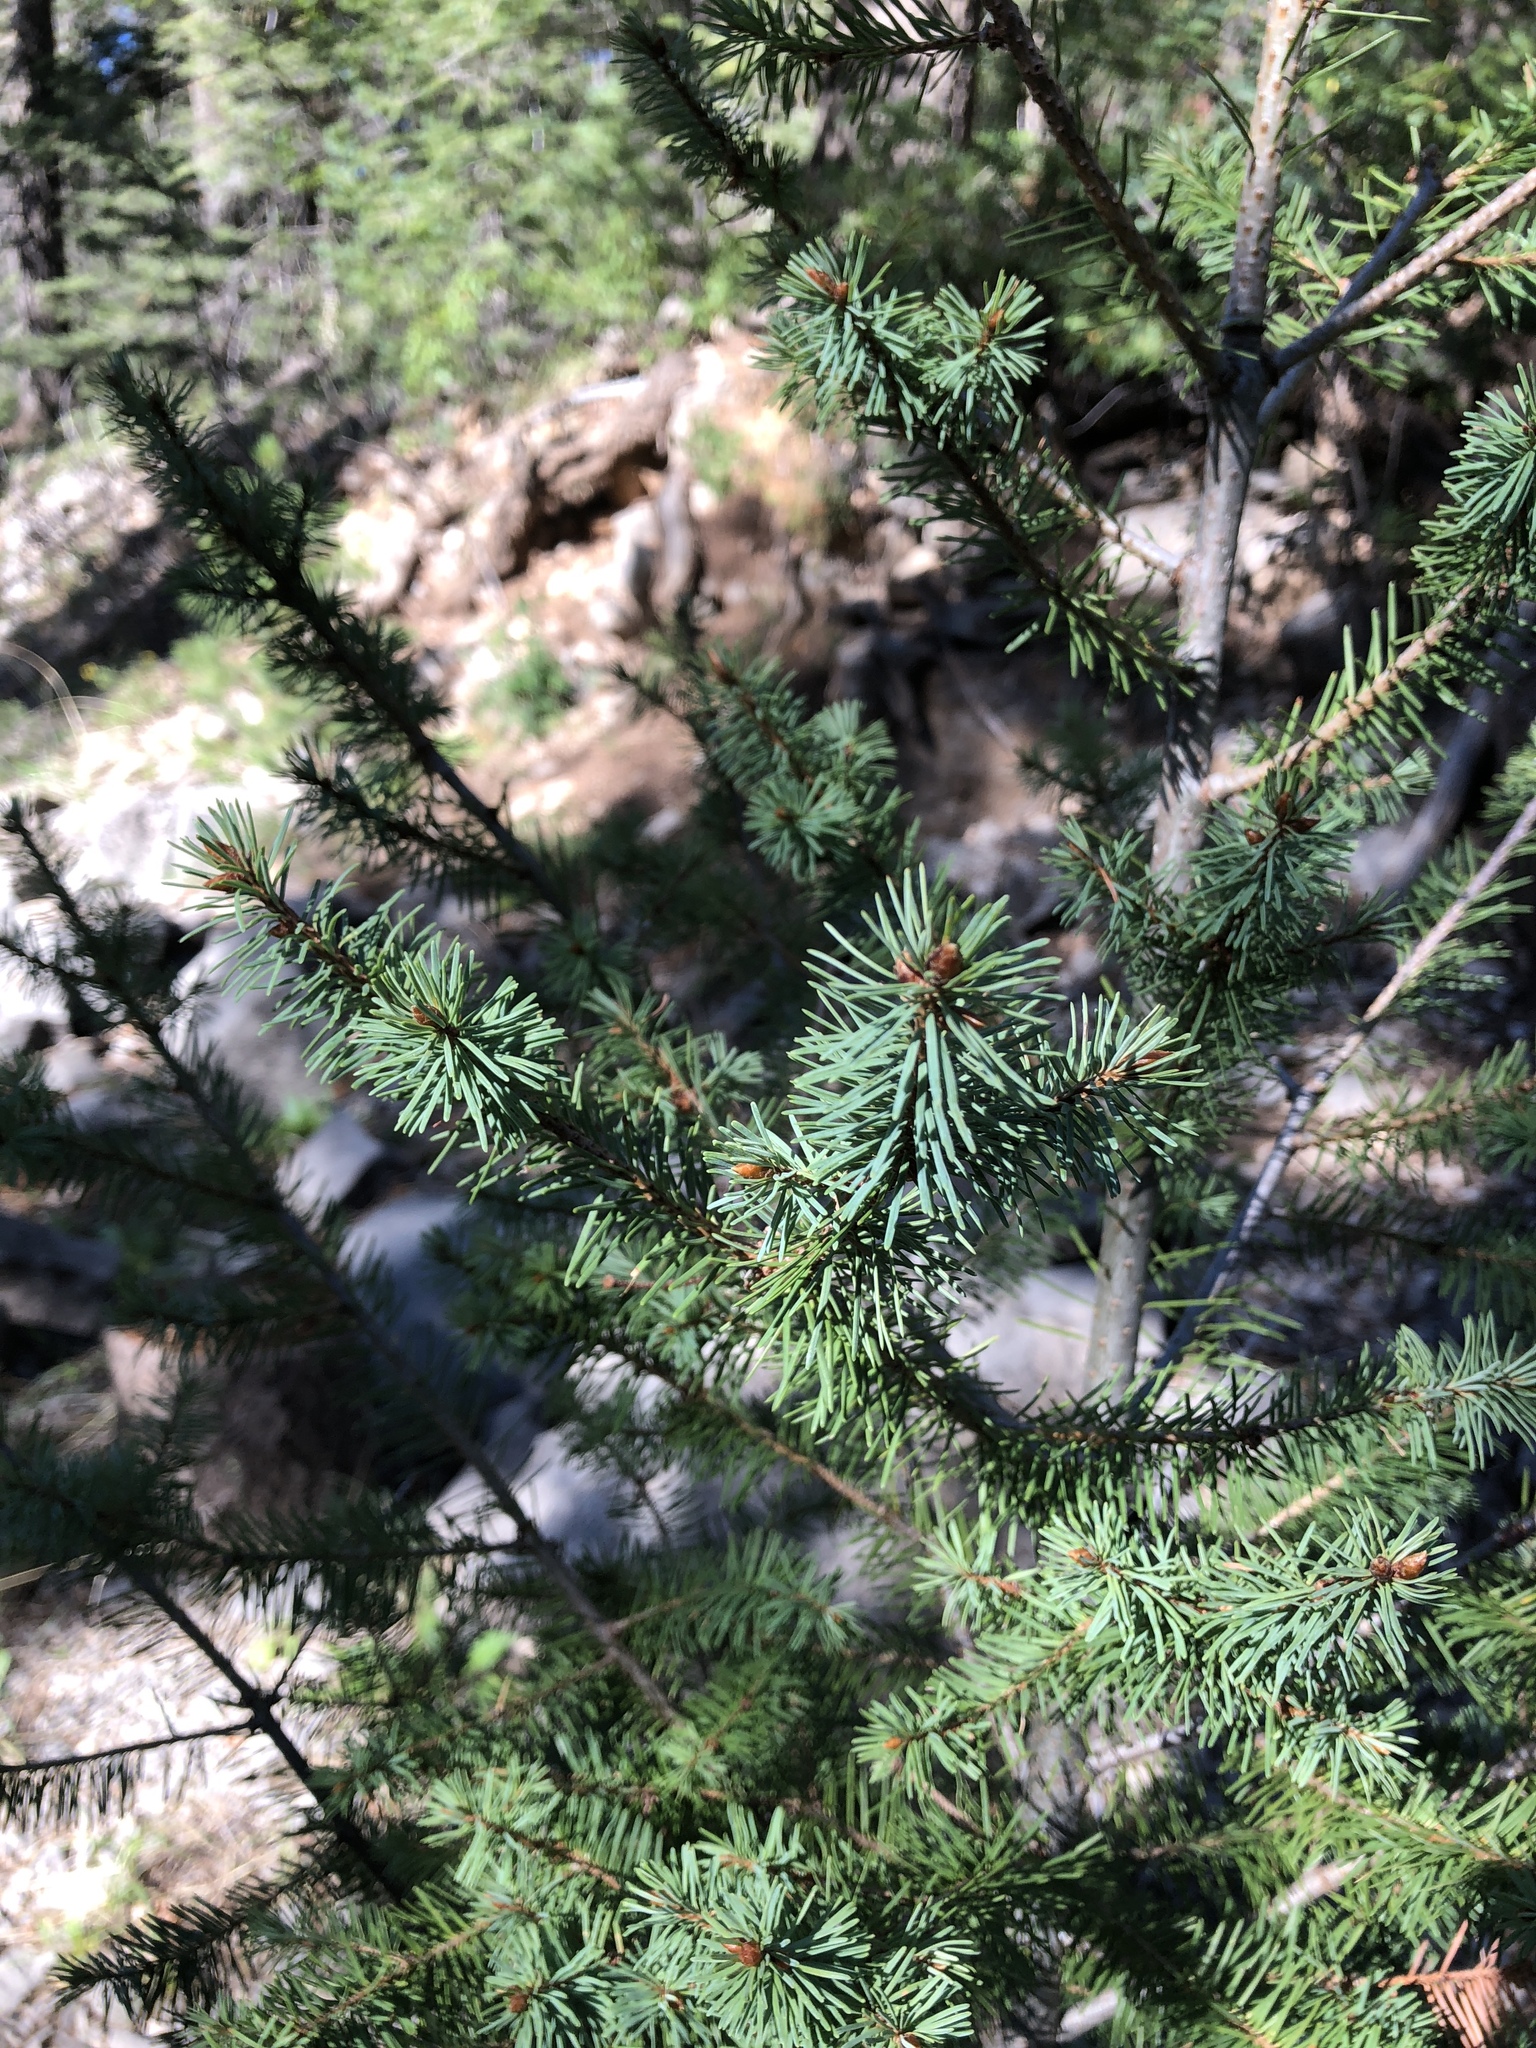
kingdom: Plantae
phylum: Tracheophyta
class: Pinopsida
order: Pinales
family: Pinaceae
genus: Pseudotsuga
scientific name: Pseudotsuga menziesii
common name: Douglas fir
